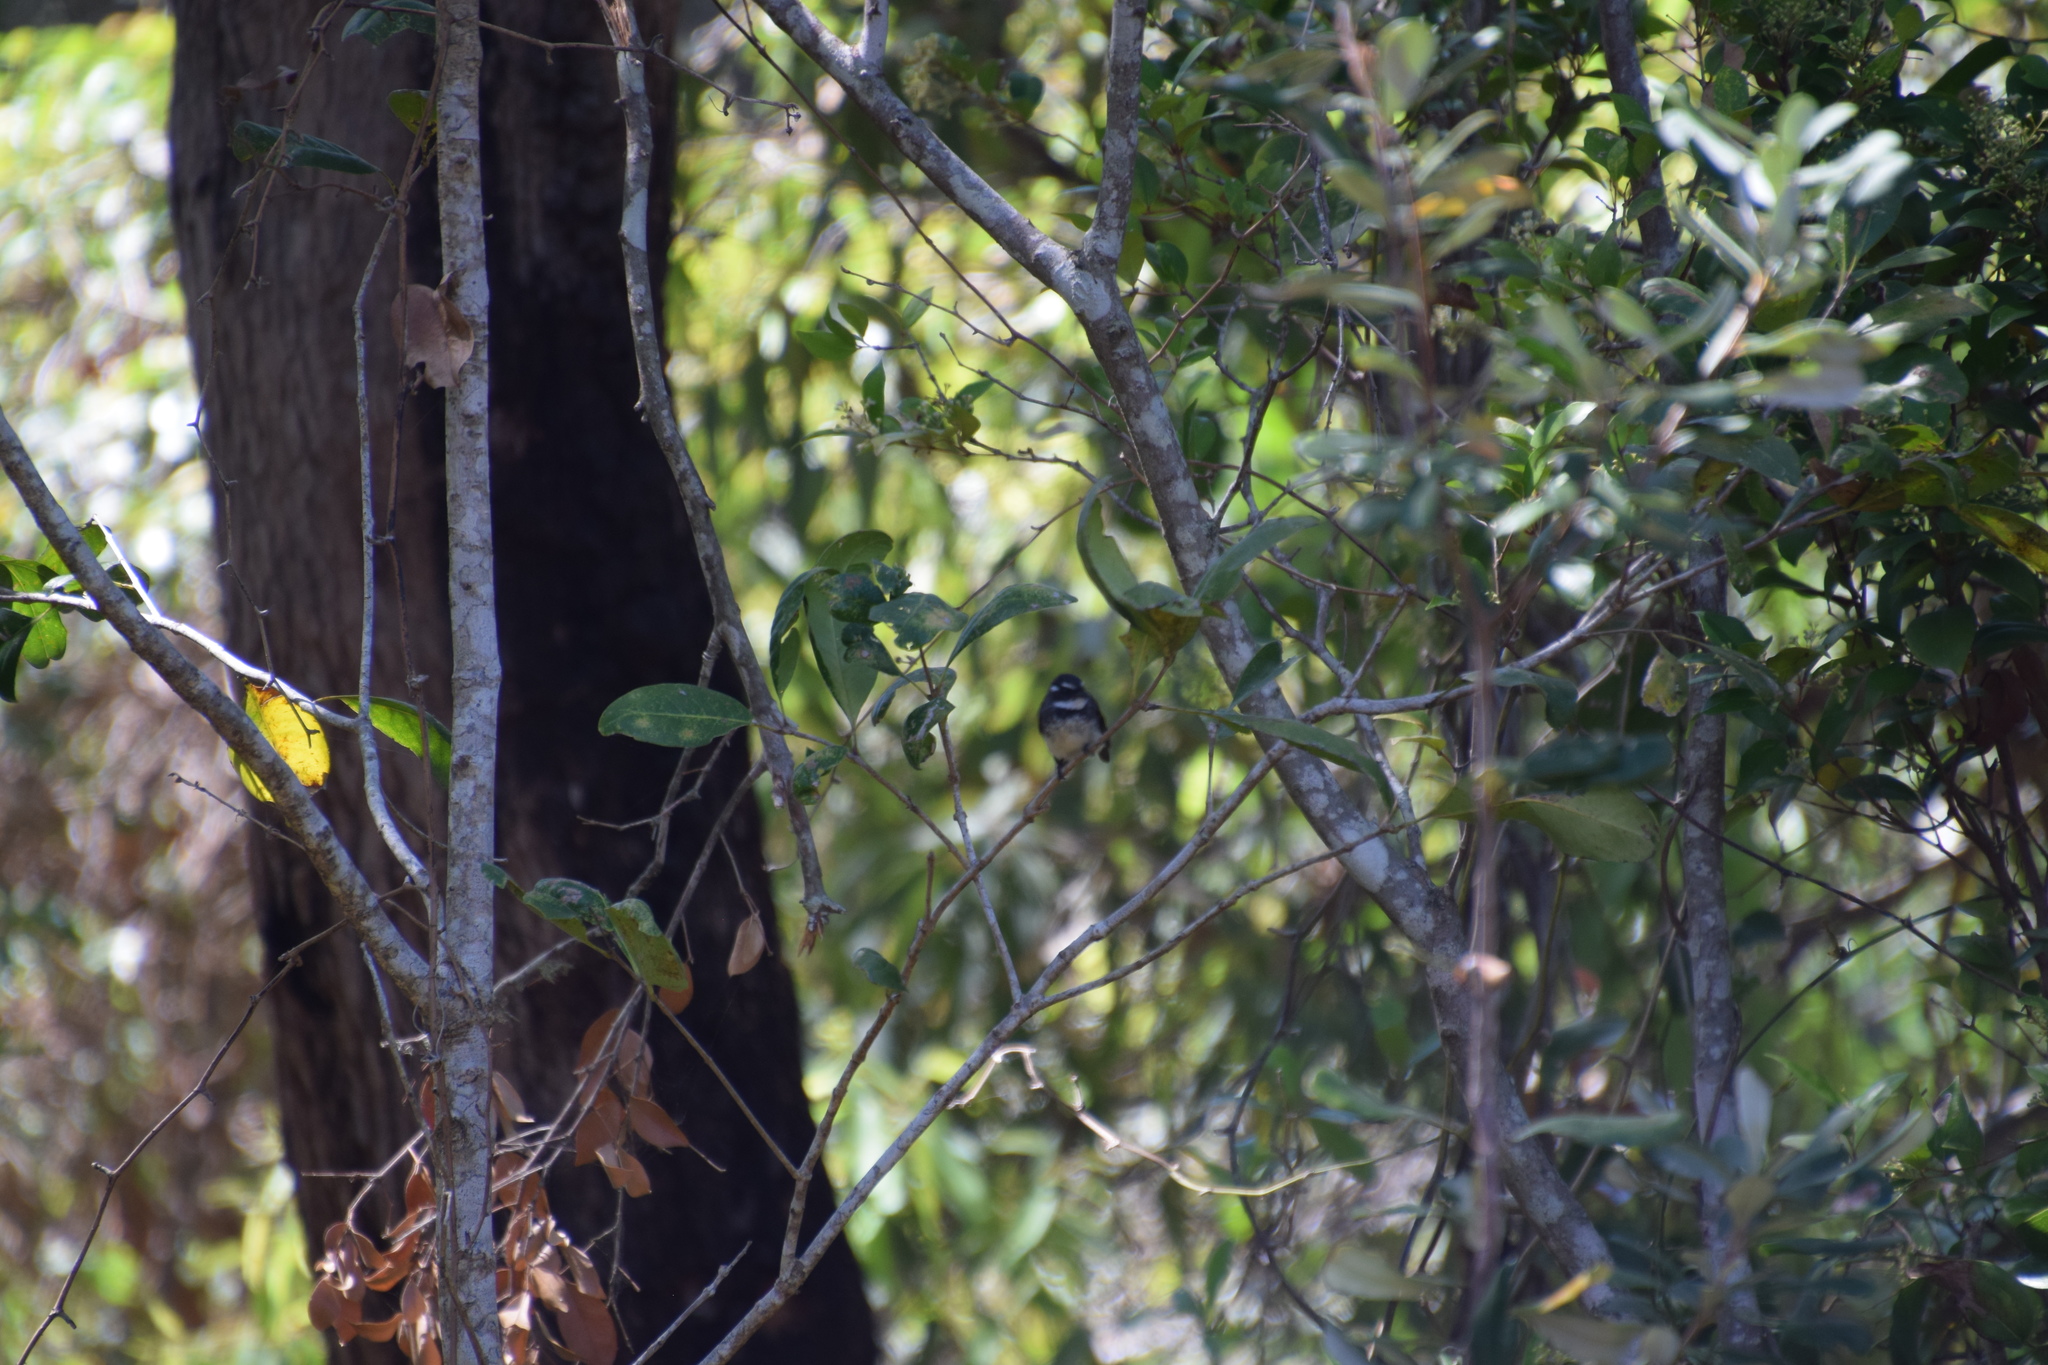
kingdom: Animalia
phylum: Chordata
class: Aves
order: Passeriformes
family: Rhipiduridae
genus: Rhipidura
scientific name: Rhipidura albiscapa
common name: Grey fantail
